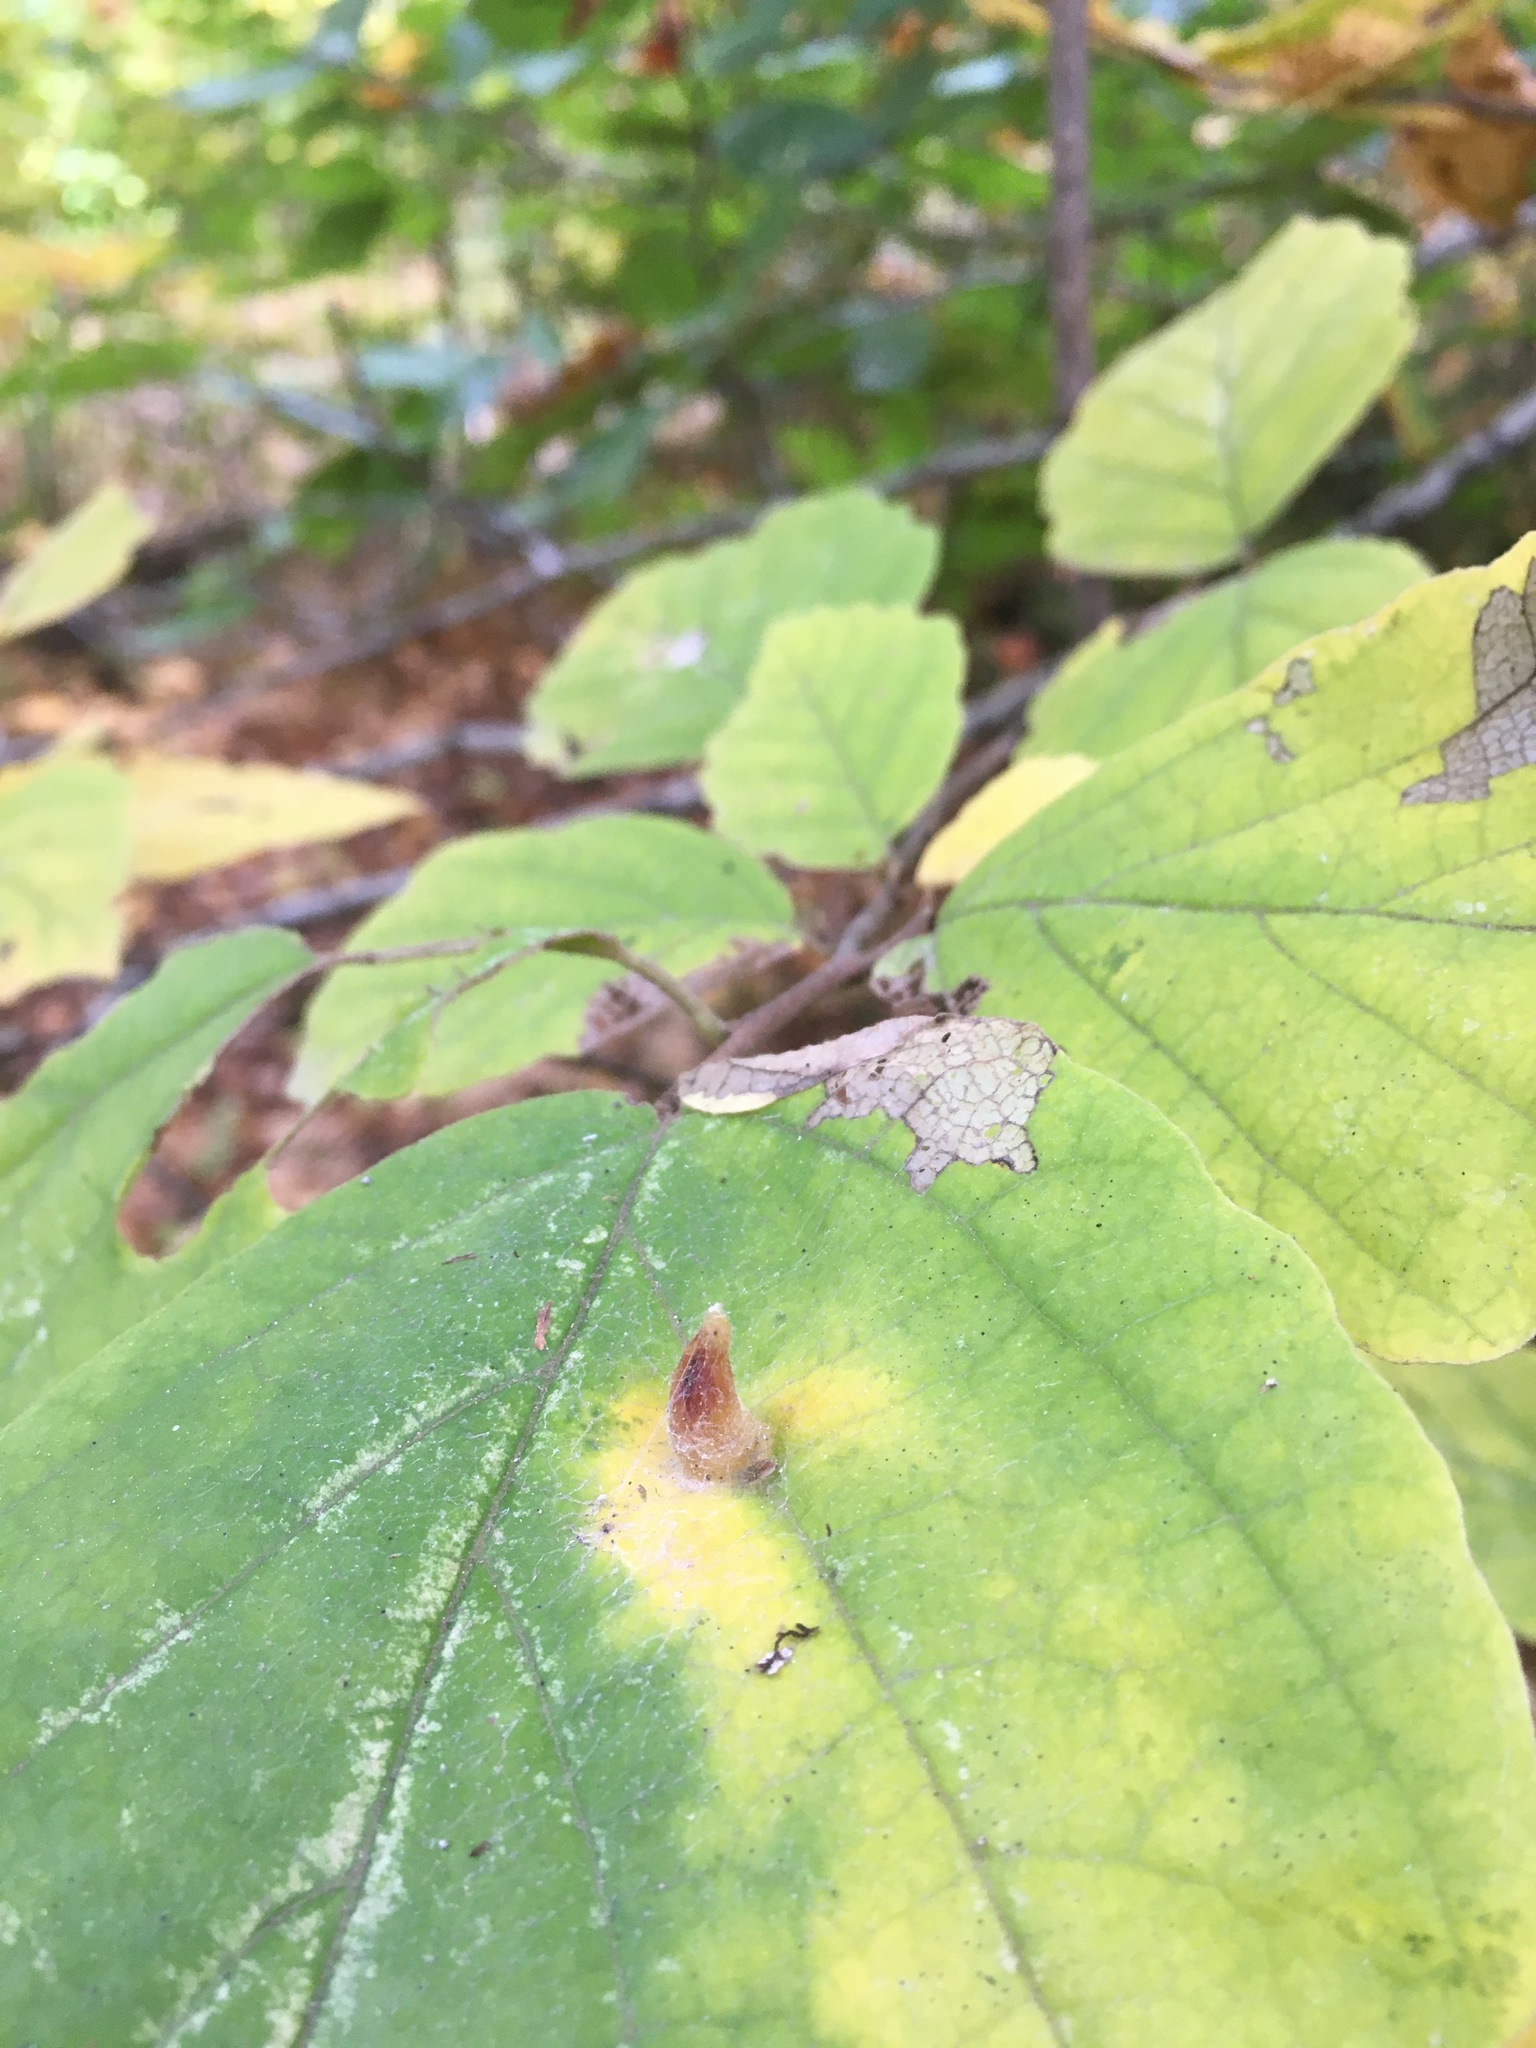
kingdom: Animalia
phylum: Arthropoda
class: Insecta
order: Hemiptera
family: Aphididae
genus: Hormaphis
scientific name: Hormaphis hamamelidis
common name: Witch-hazel cone gall aphid
